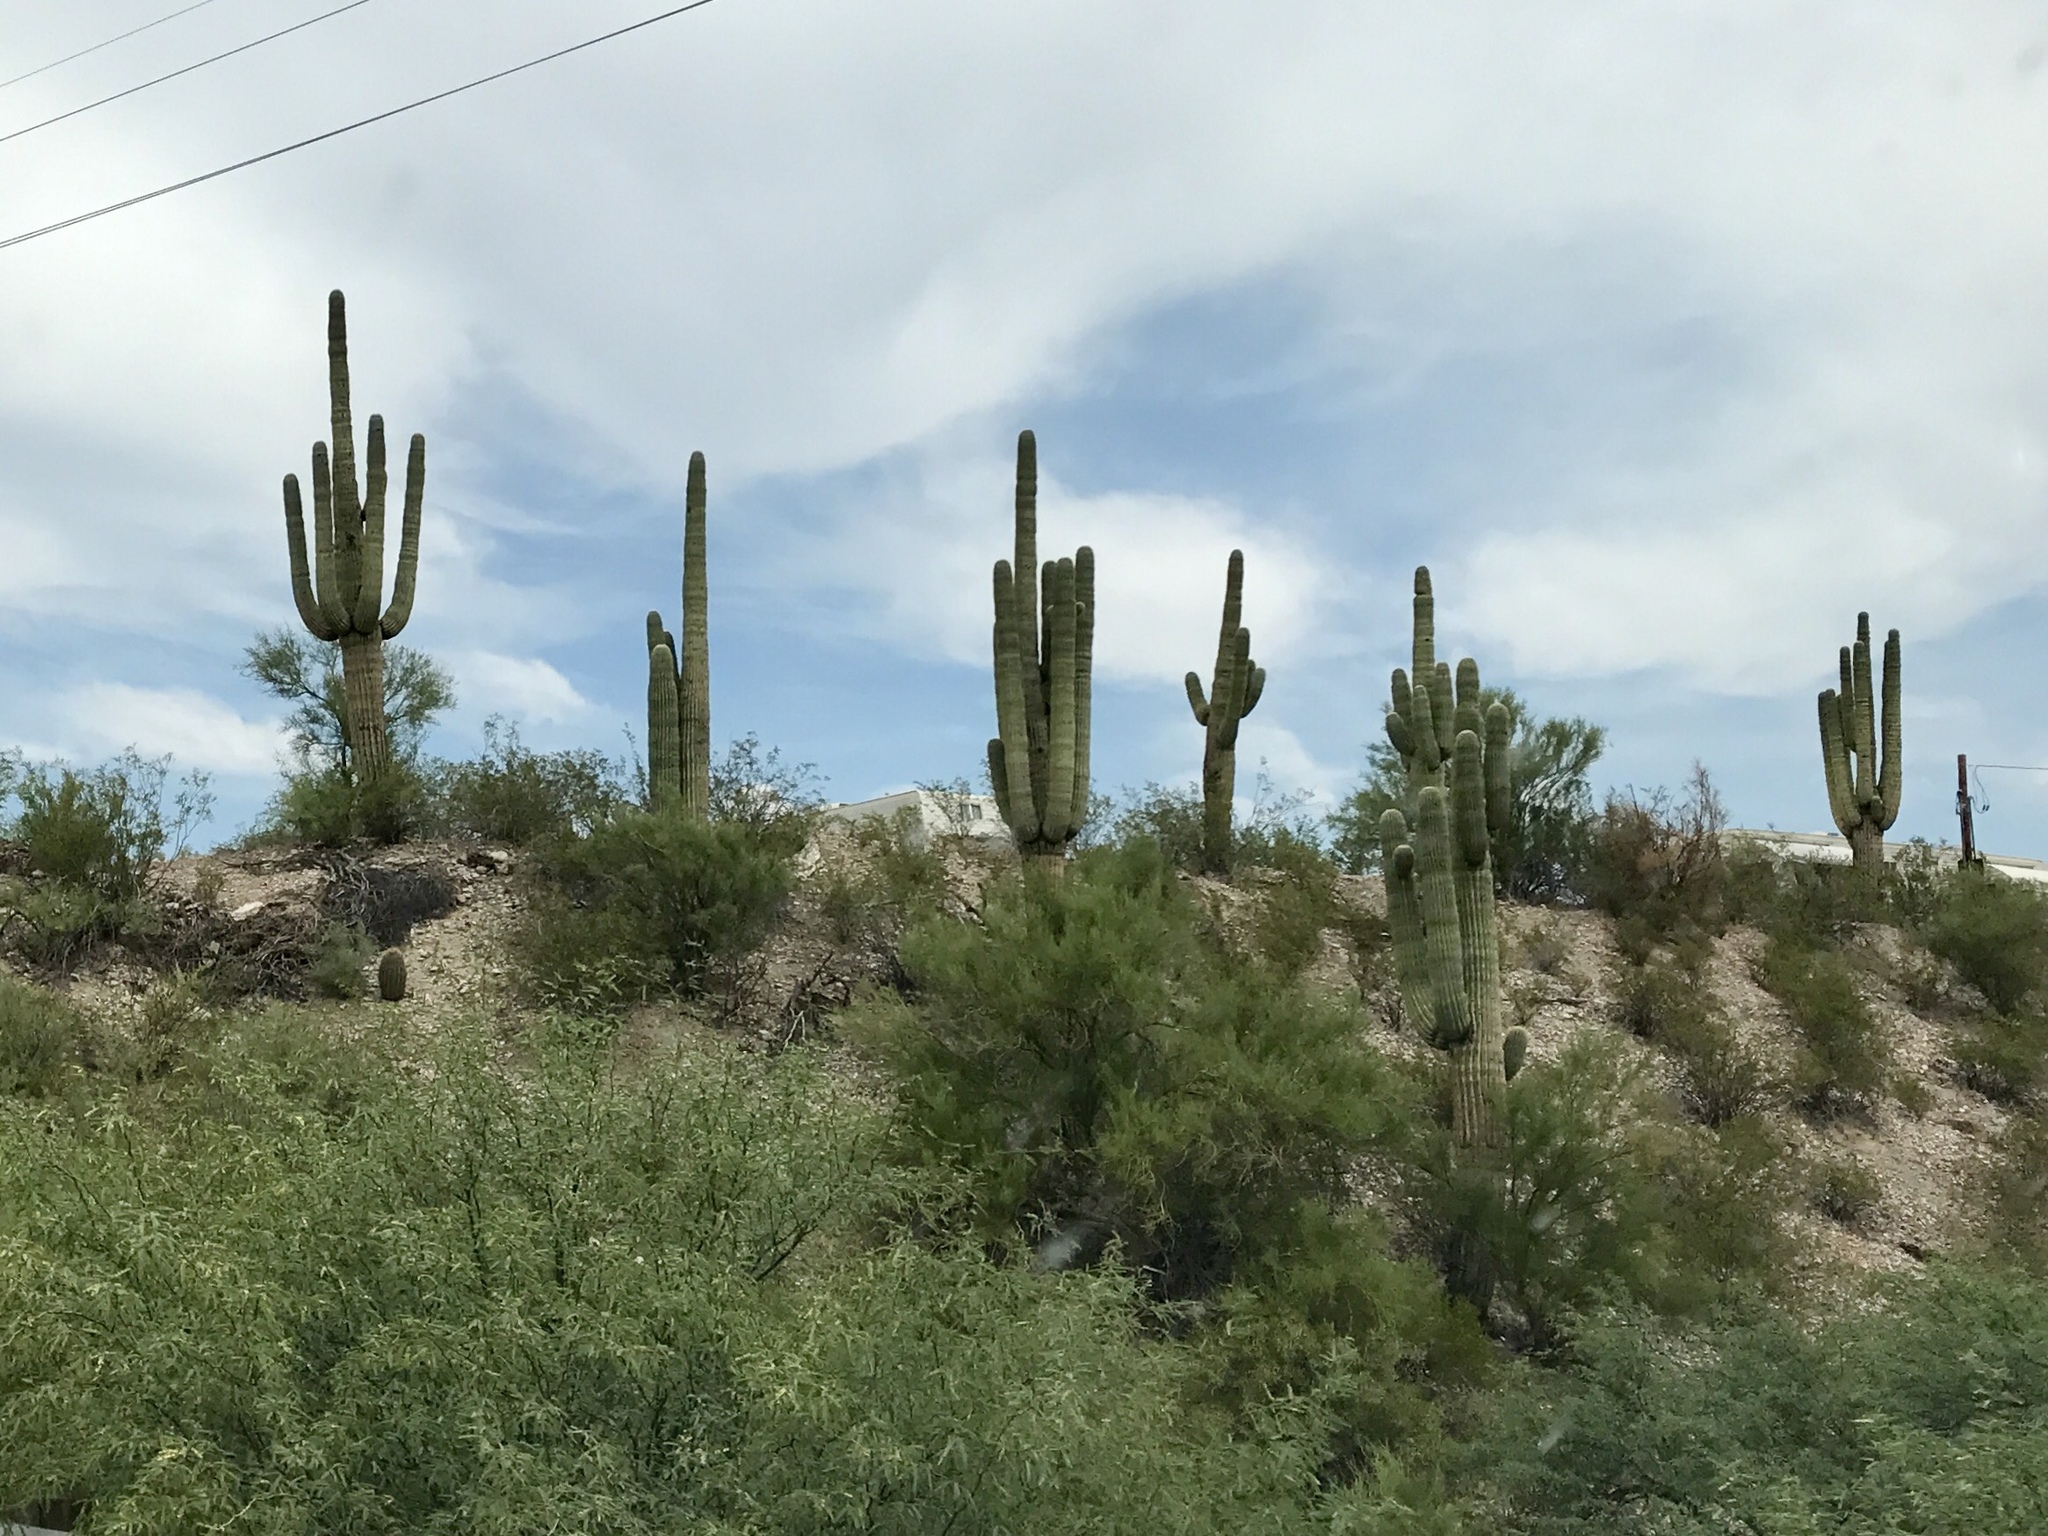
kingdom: Plantae
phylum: Tracheophyta
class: Magnoliopsida
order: Caryophyllales
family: Cactaceae
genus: Carnegiea
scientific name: Carnegiea gigantea
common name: Saguaro
